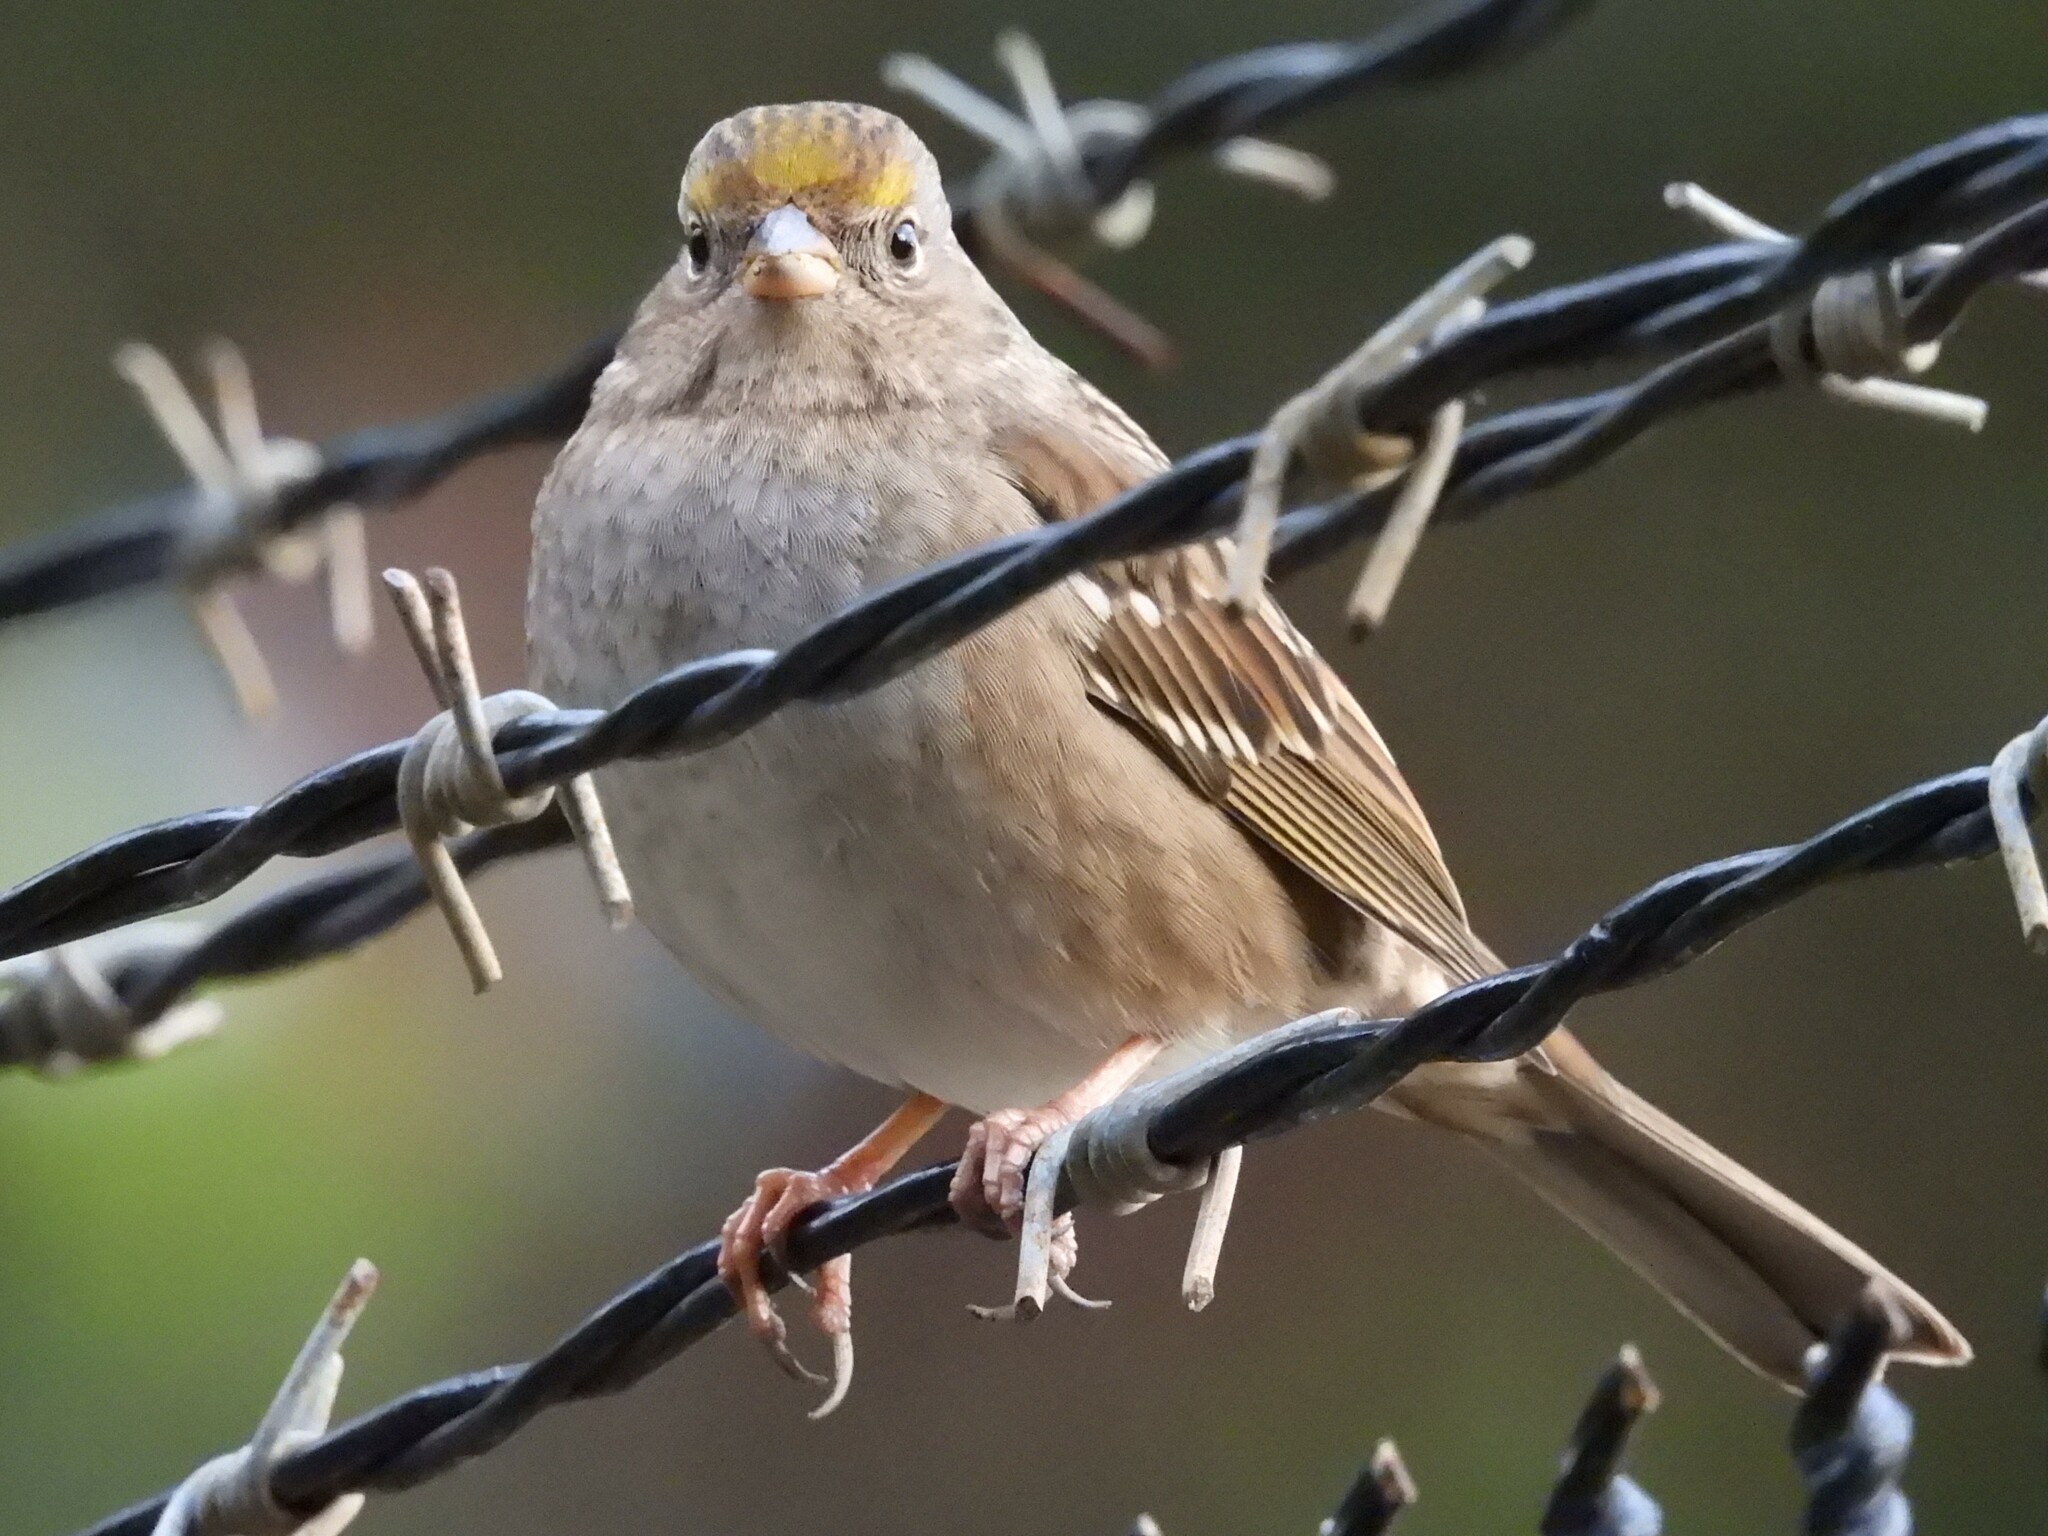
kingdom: Animalia
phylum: Chordata
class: Aves
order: Passeriformes
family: Passerellidae
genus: Zonotrichia
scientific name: Zonotrichia atricapilla
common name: Golden-crowned sparrow
